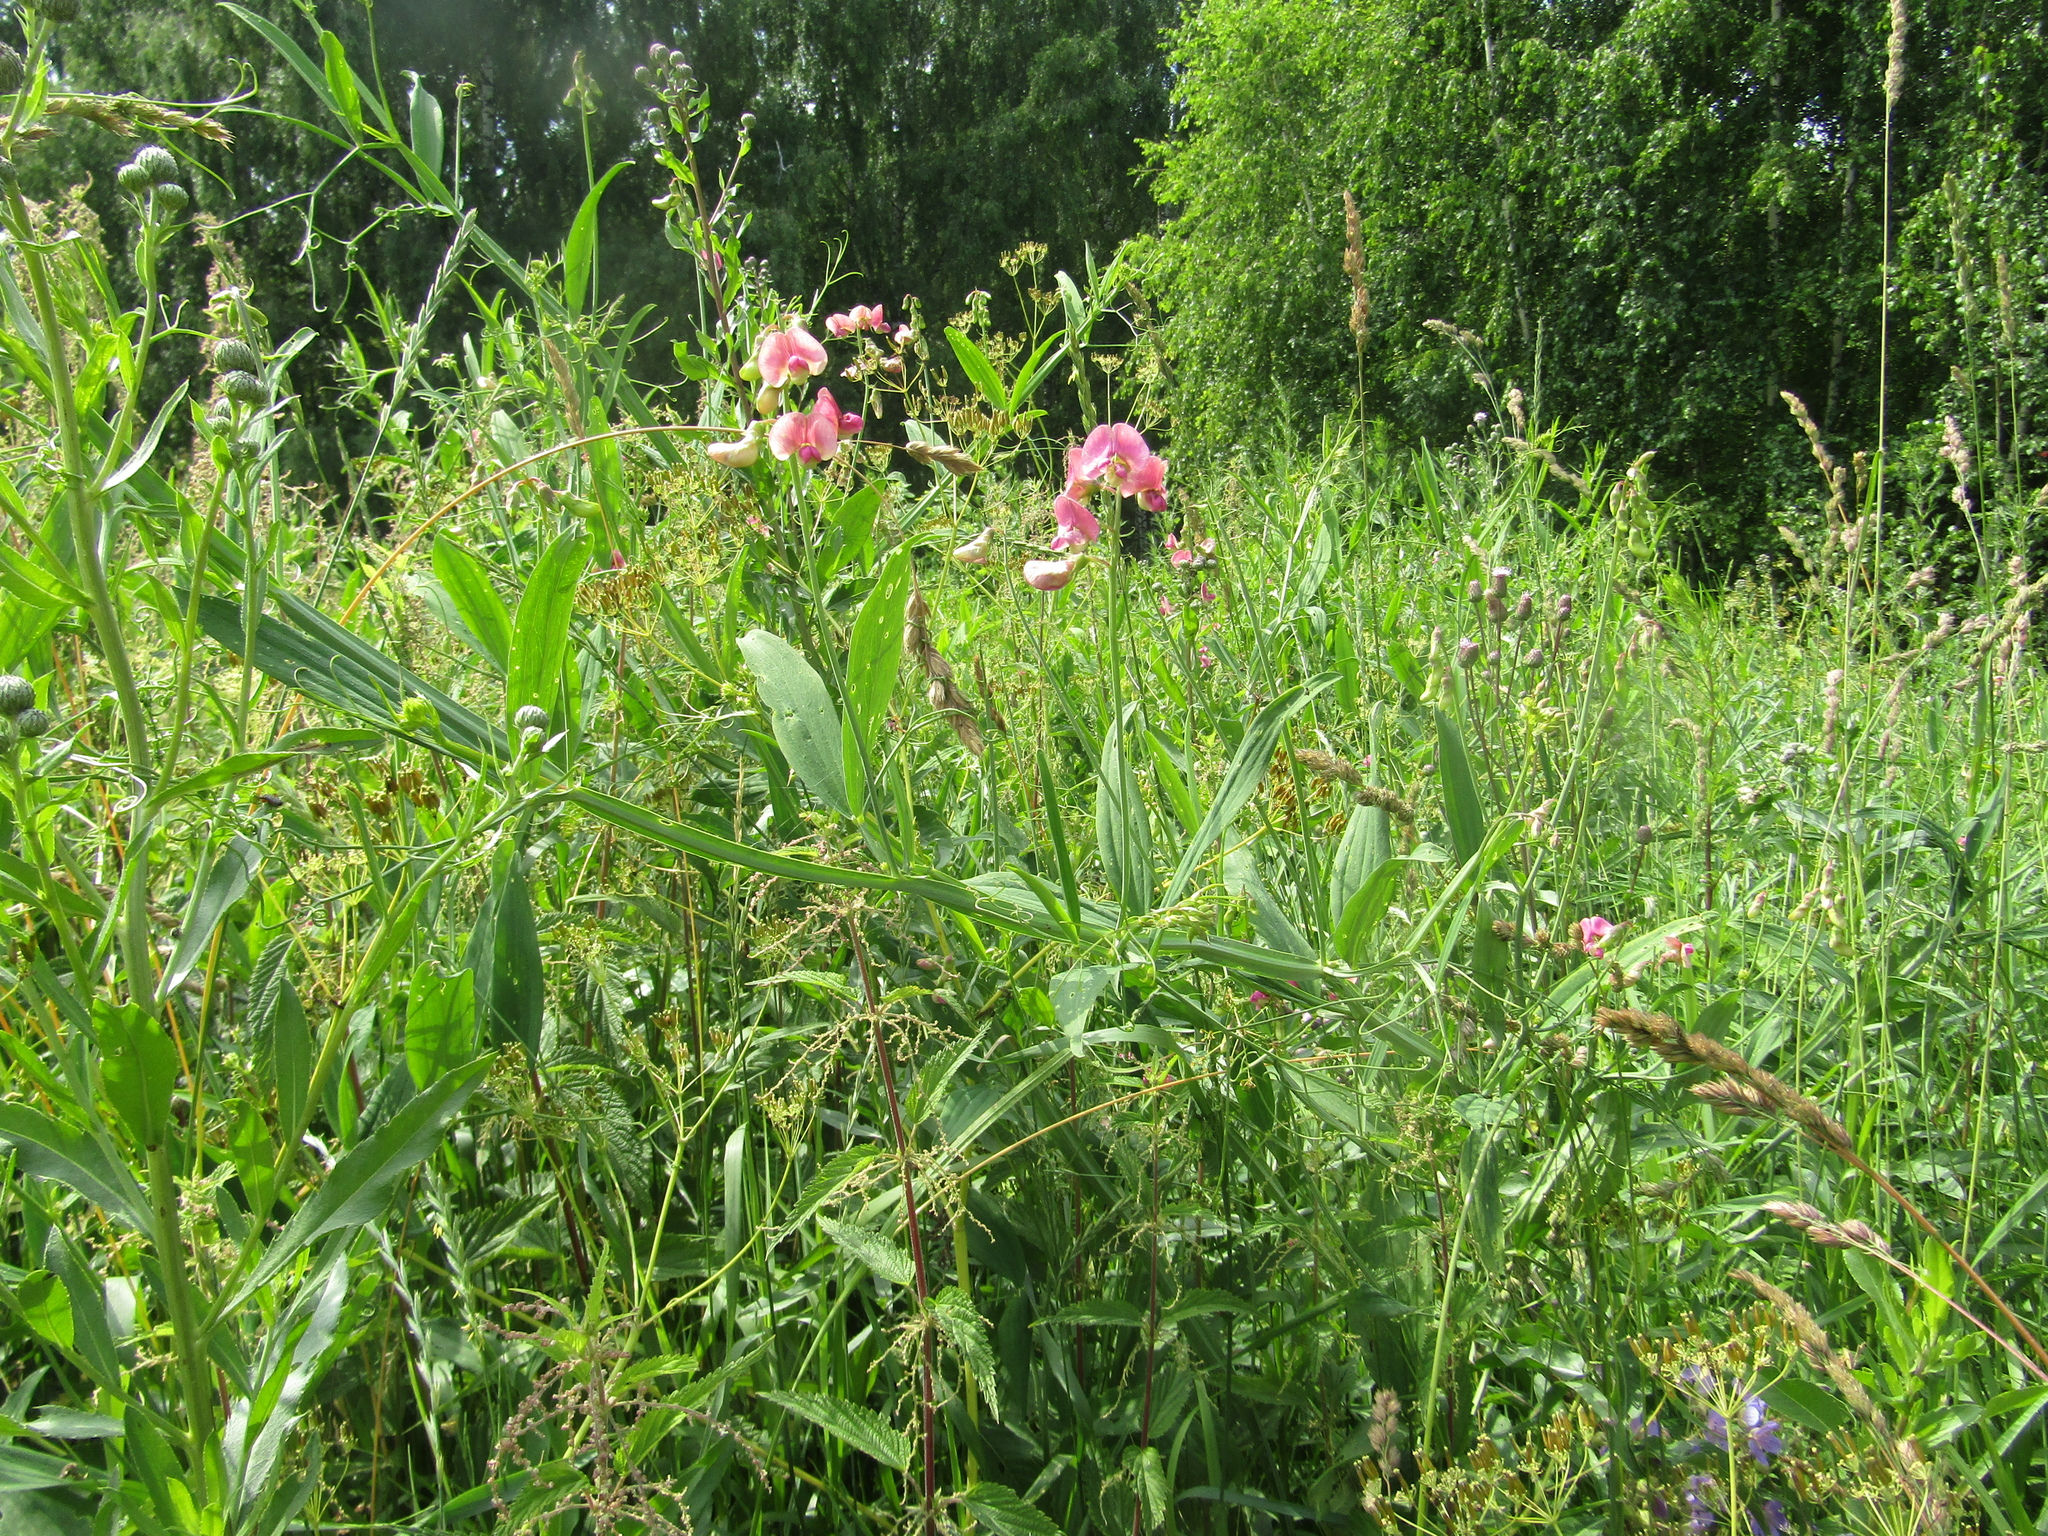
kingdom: Plantae
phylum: Tracheophyta
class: Magnoliopsida
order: Fabales
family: Fabaceae
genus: Lathyrus
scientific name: Lathyrus sylvestris
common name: Flat pea
